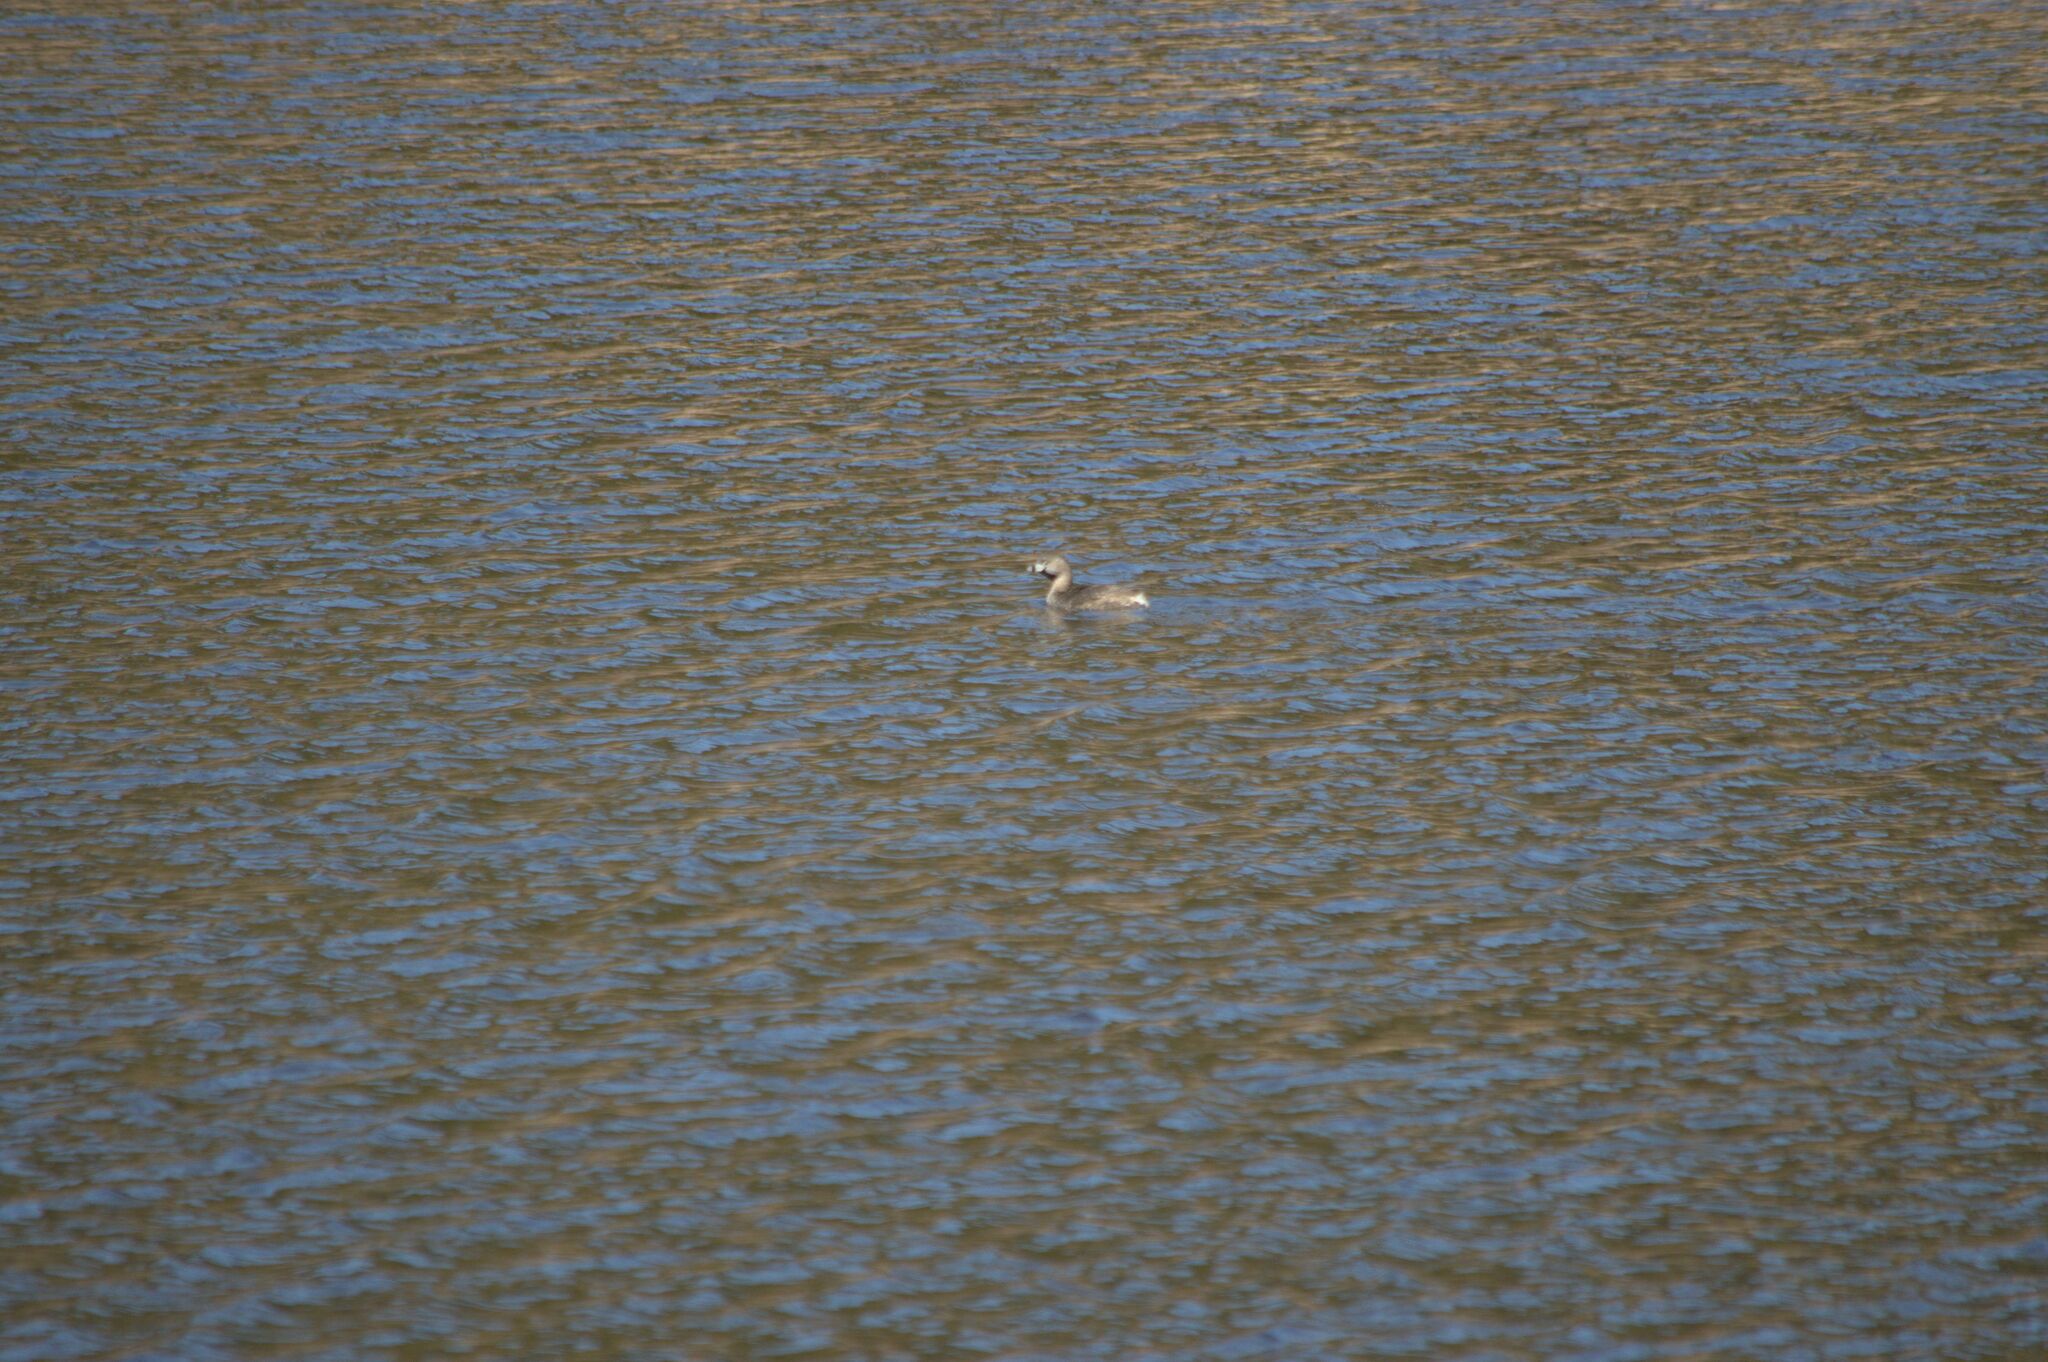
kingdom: Animalia
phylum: Chordata
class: Aves
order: Podicipediformes
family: Podicipedidae
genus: Podilymbus
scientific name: Podilymbus podiceps
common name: Pied-billed grebe
